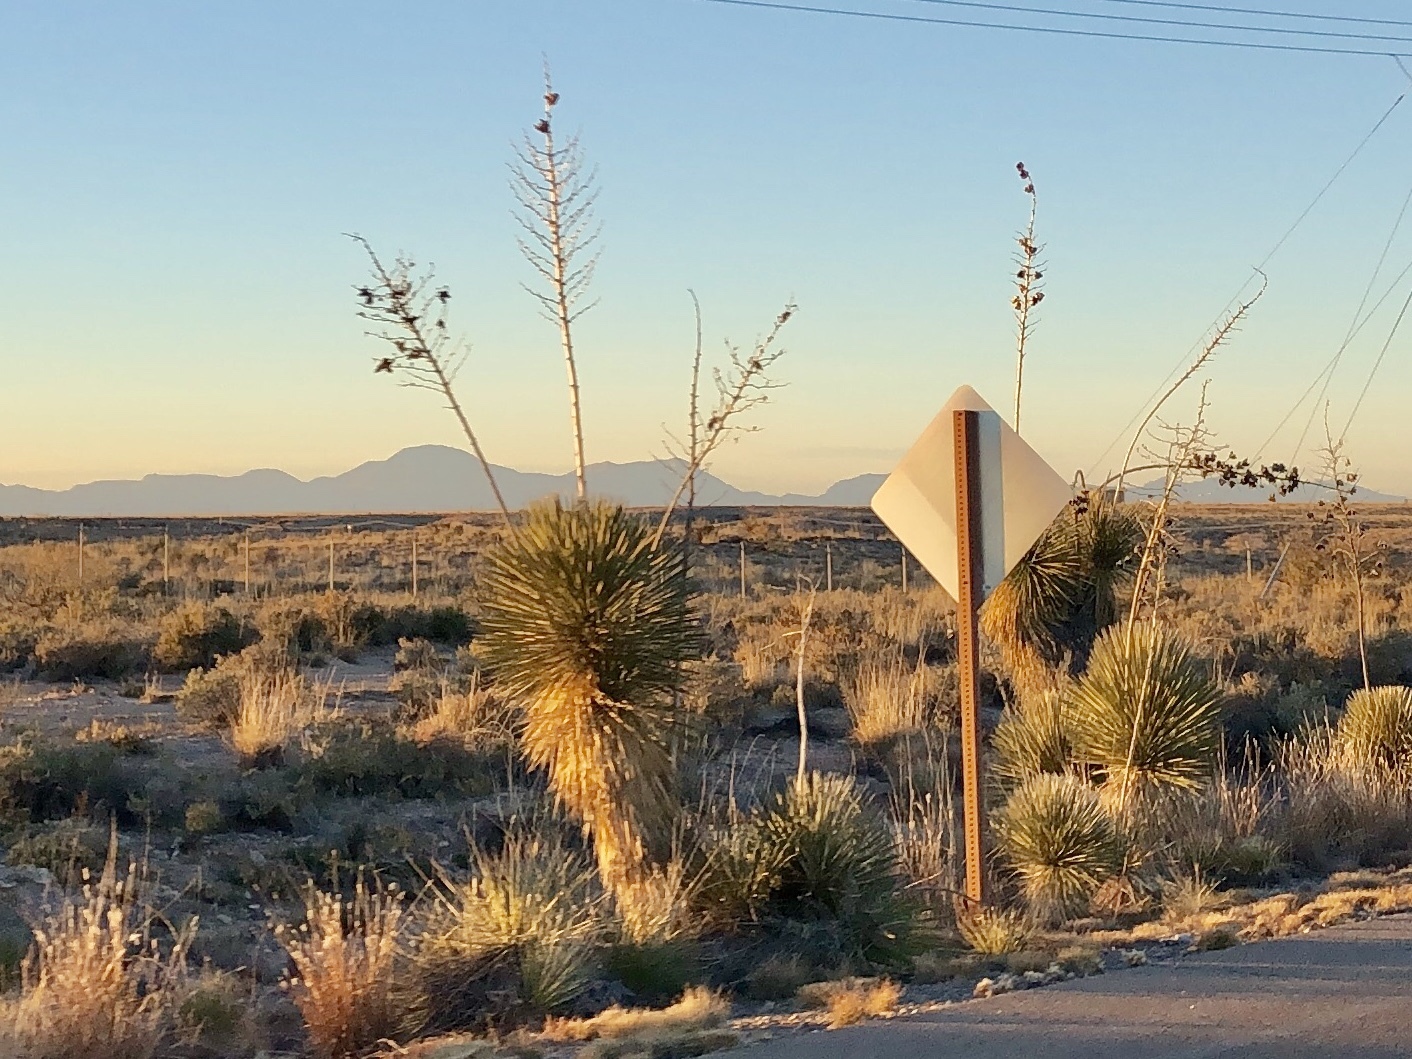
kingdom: Plantae
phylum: Tracheophyta
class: Liliopsida
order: Asparagales
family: Asparagaceae
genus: Yucca
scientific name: Yucca elata
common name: Palmella
